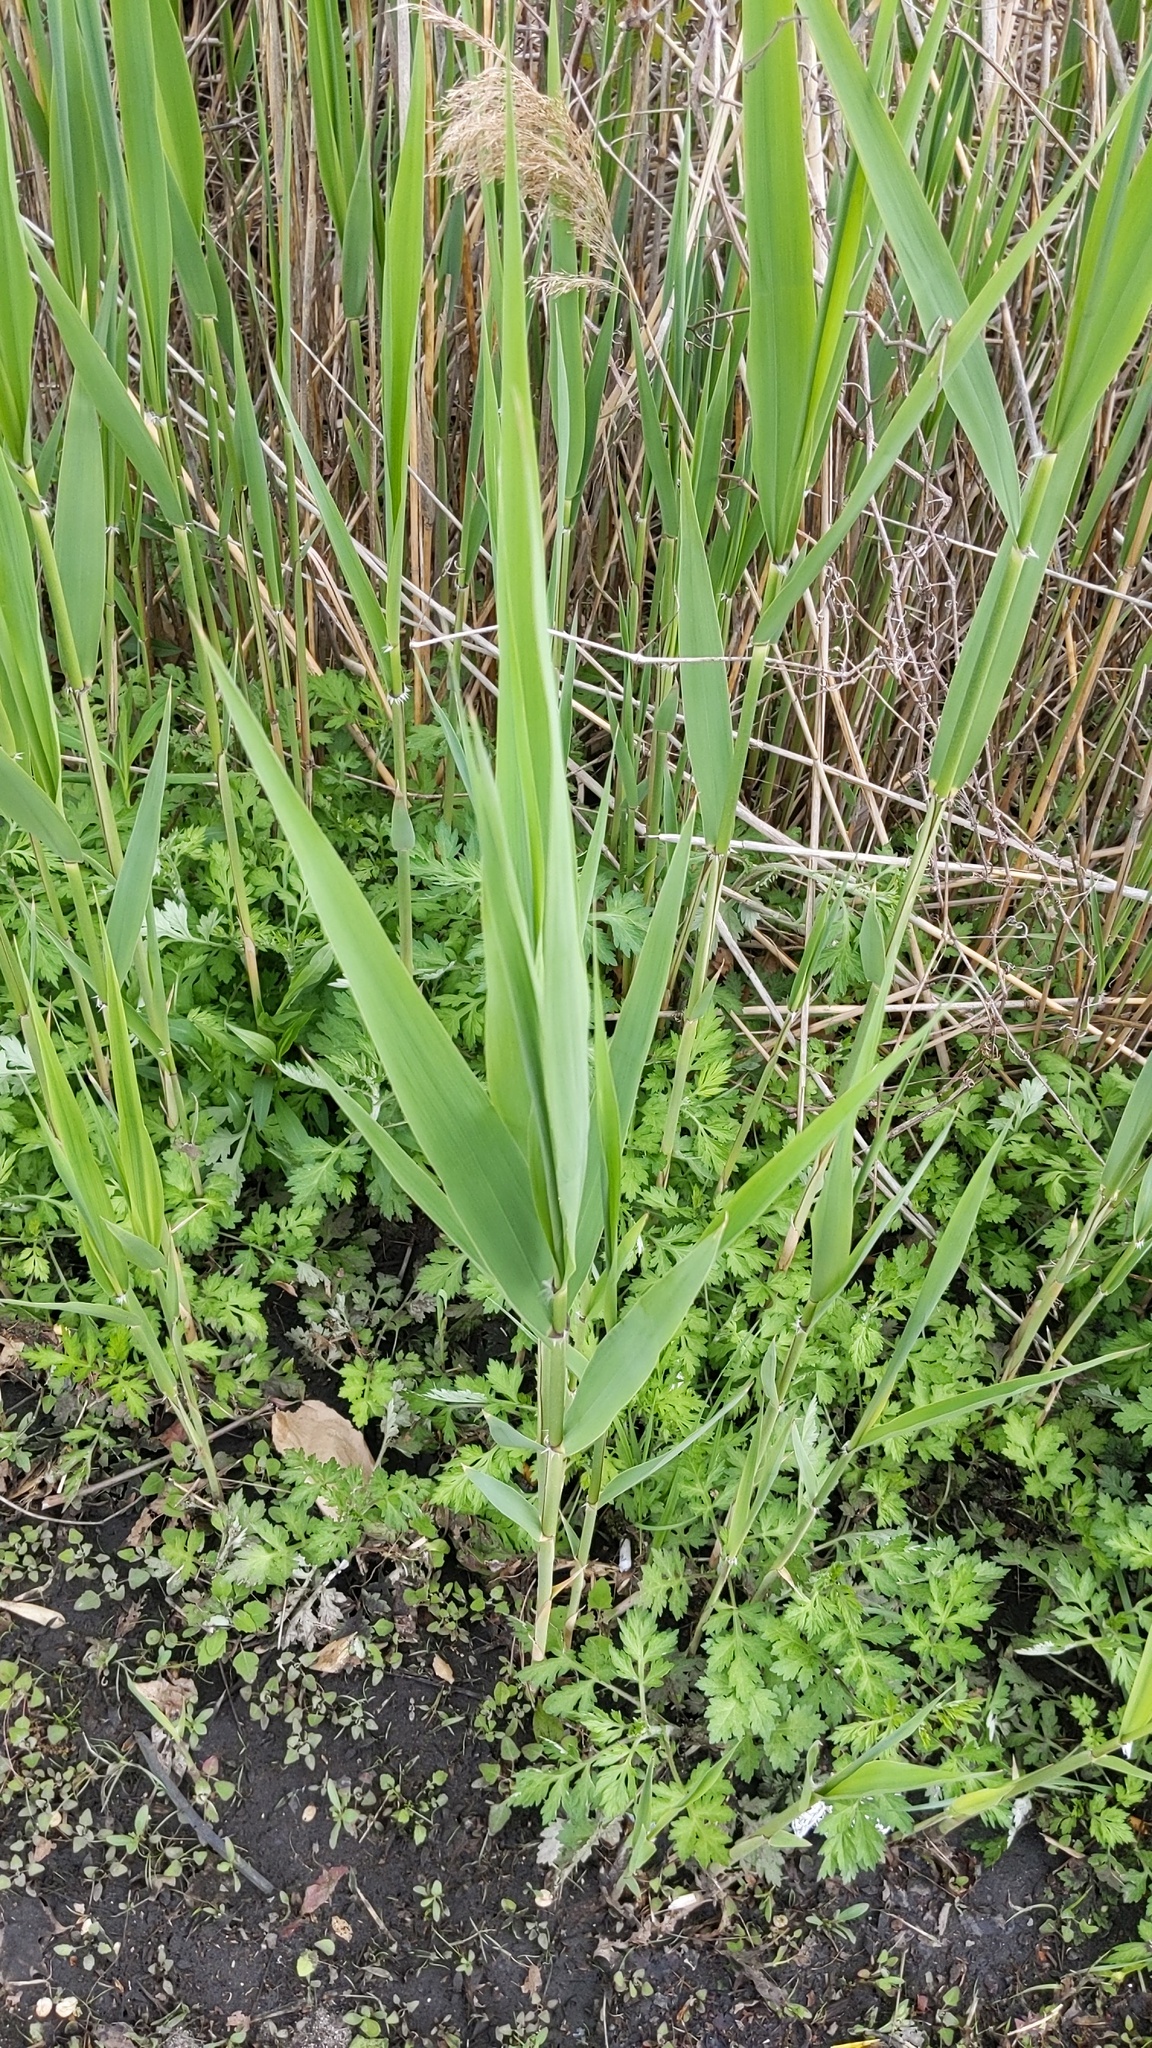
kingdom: Plantae
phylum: Tracheophyta
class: Liliopsida
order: Poales
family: Poaceae
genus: Phragmites
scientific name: Phragmites australis
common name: Common reed
